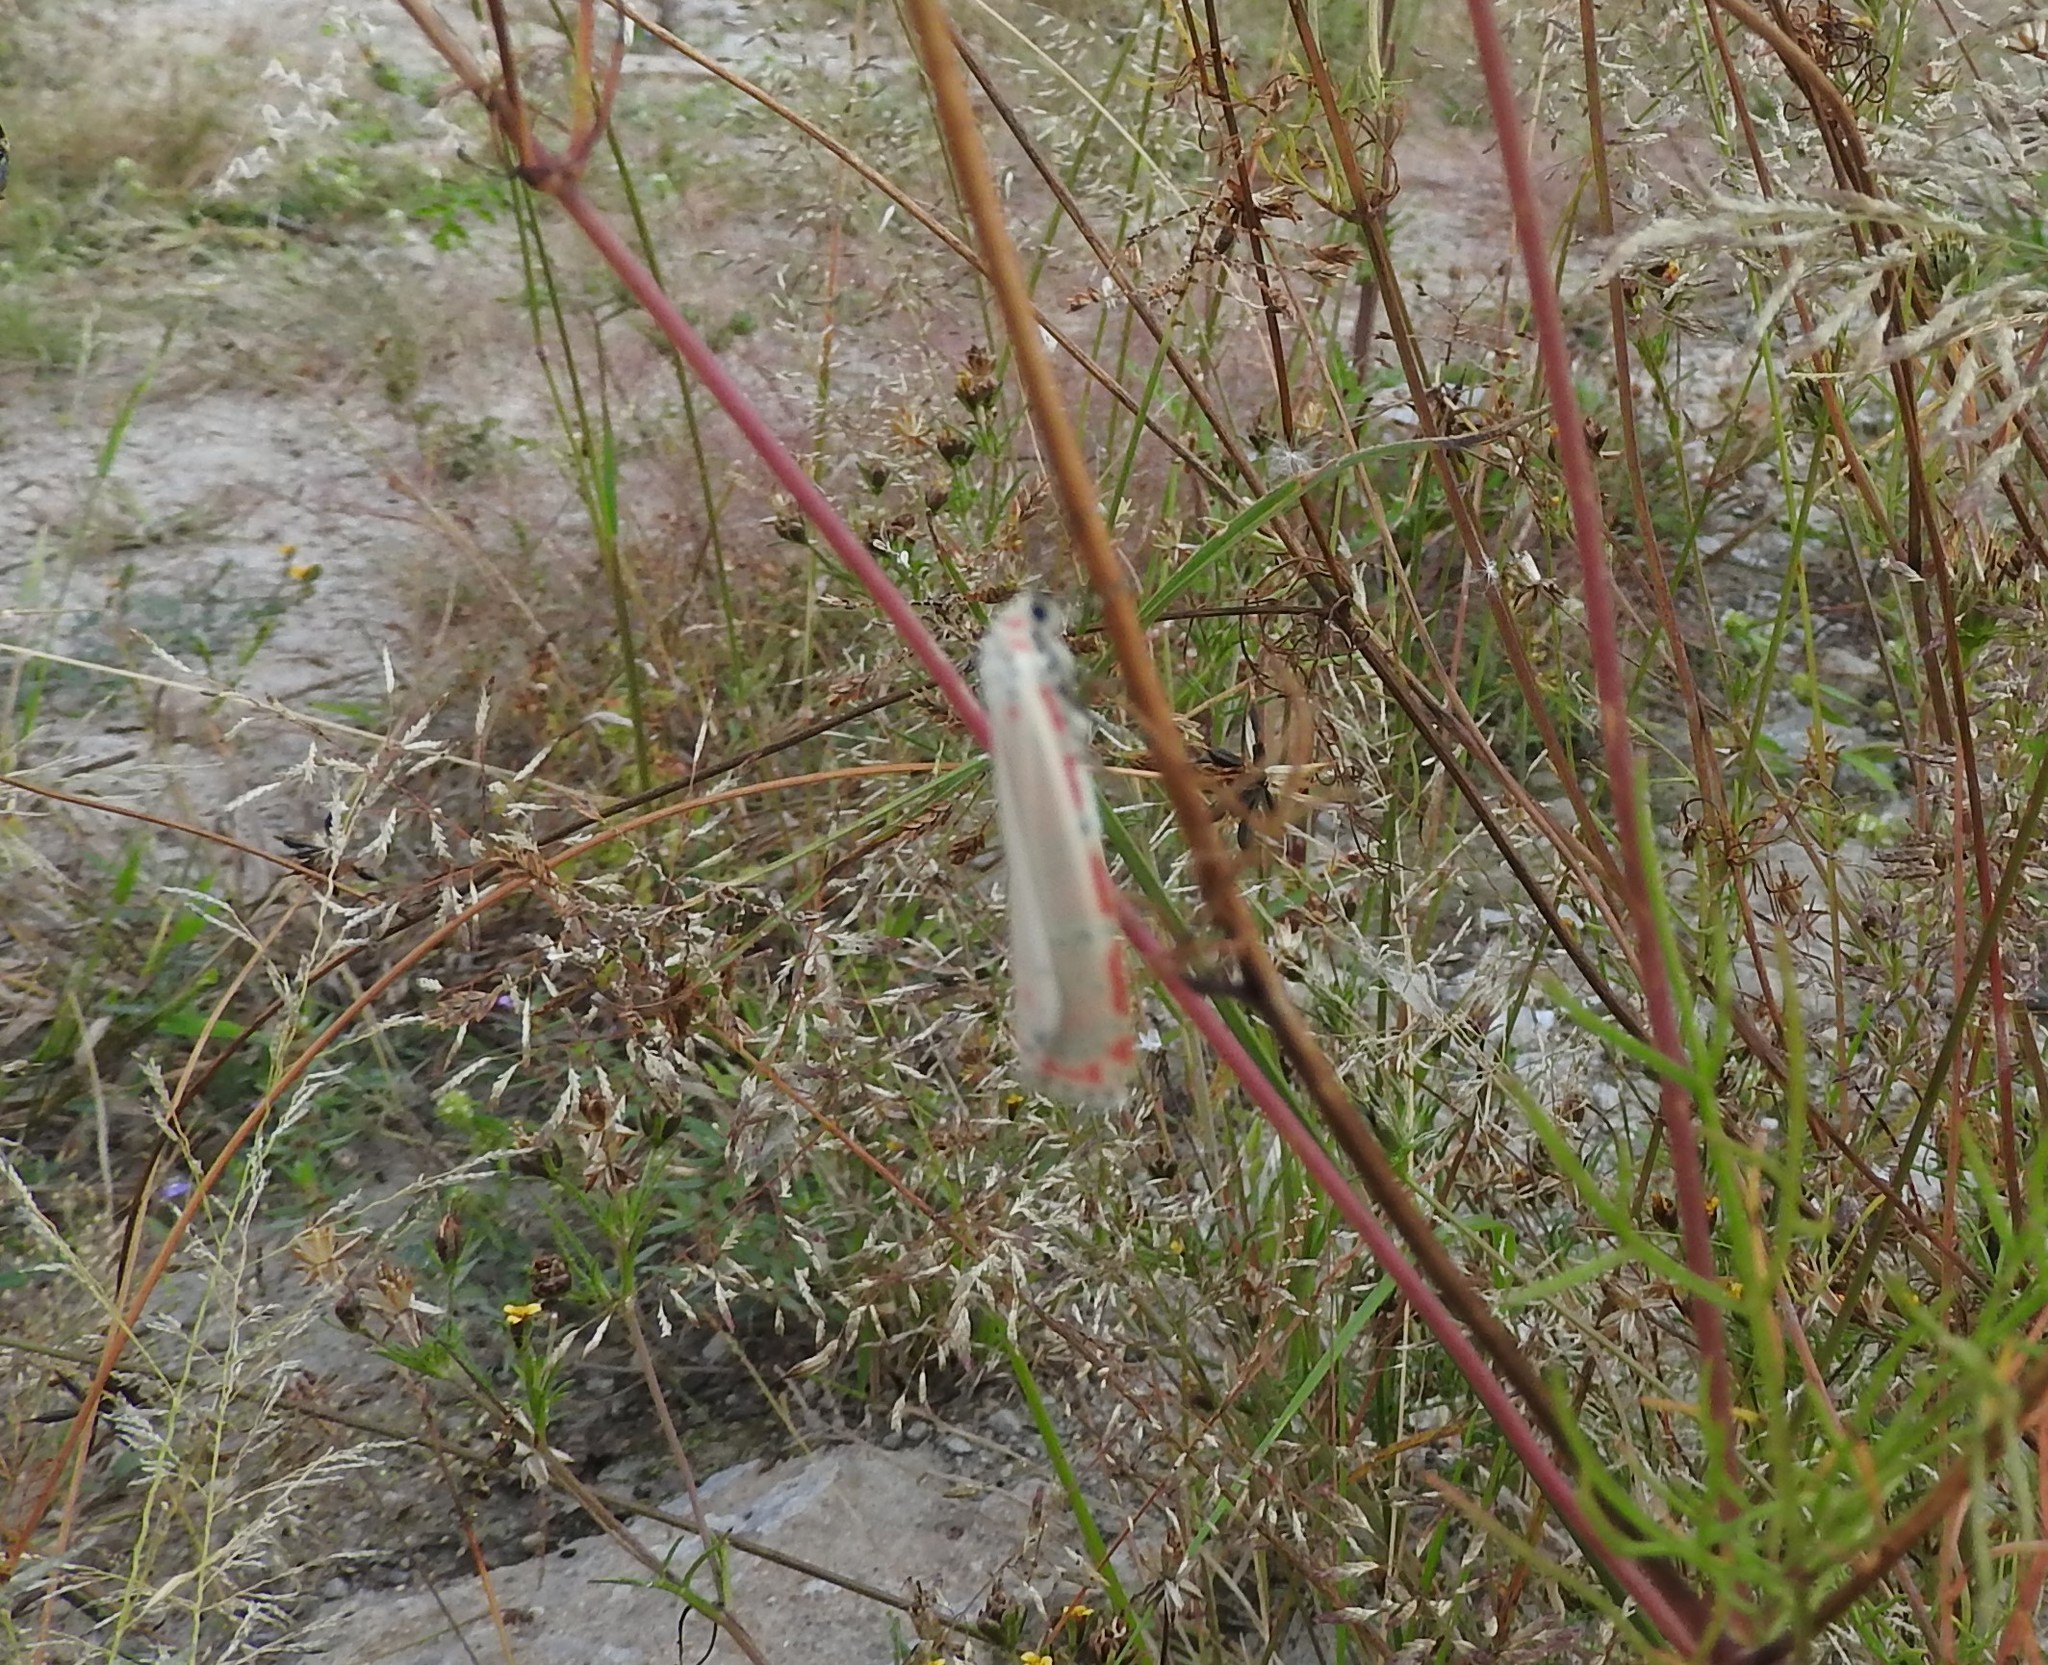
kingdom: Animalia
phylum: Arthropoda
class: Insecta
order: Lepidoptera
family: Erebidae
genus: Utetheisa
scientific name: Utetheisa ornatrix
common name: Beautiful utetheisa
